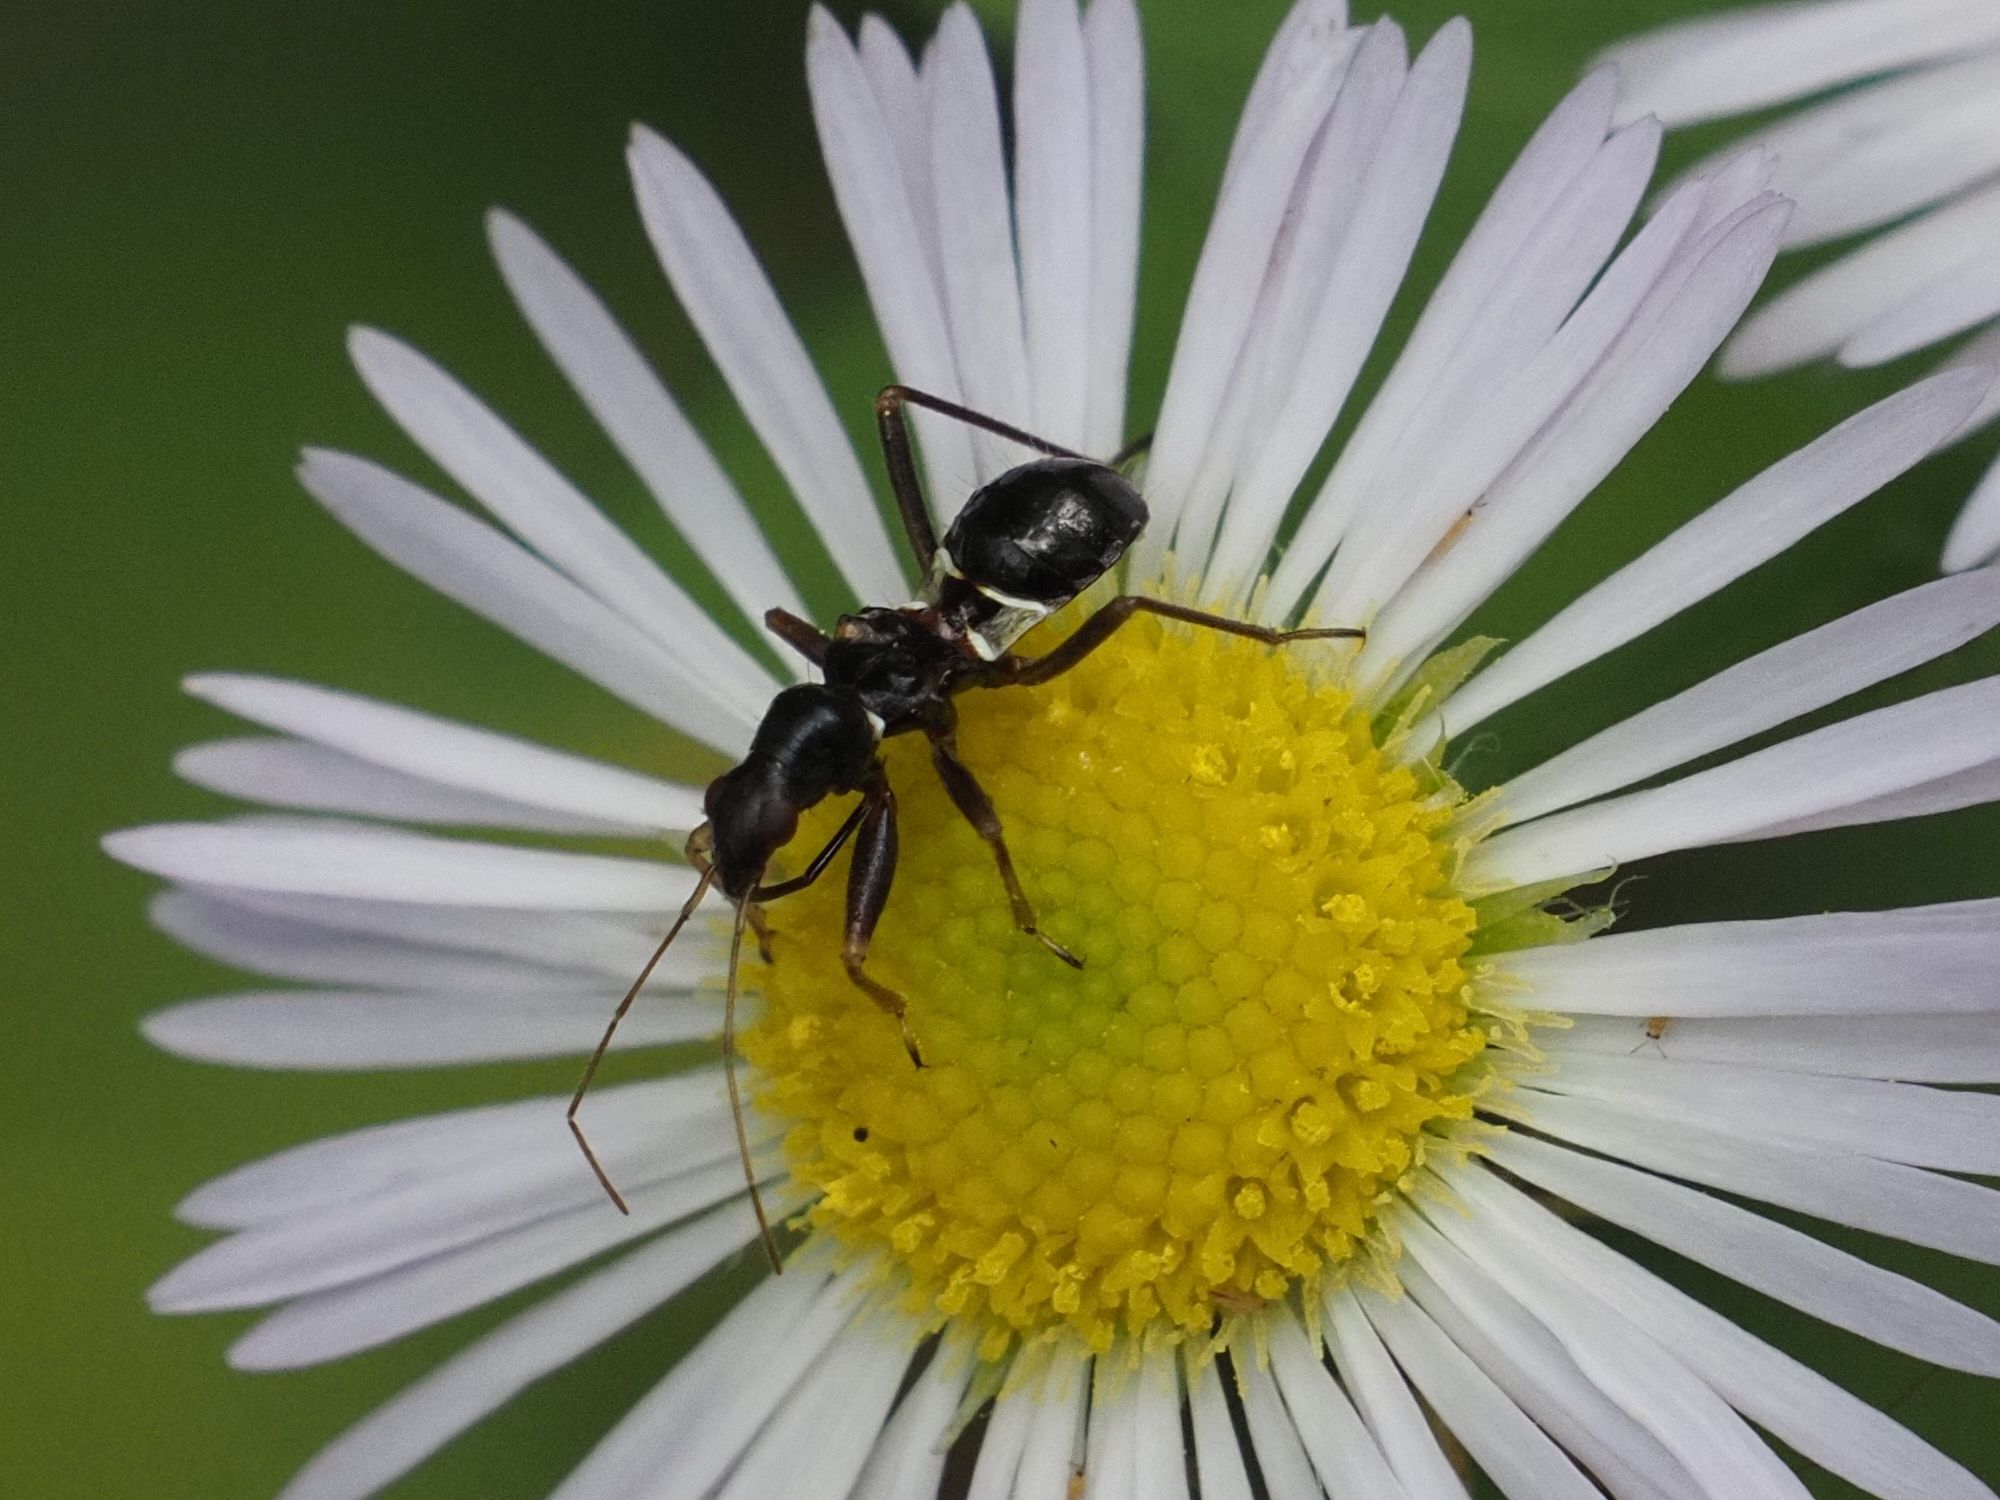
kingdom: Animalia
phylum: Arthropoda
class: Insecta
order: Hemiptera
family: Nabidae
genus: Himacerus
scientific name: Himacerus mirmicoides
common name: Ant damsel bug
